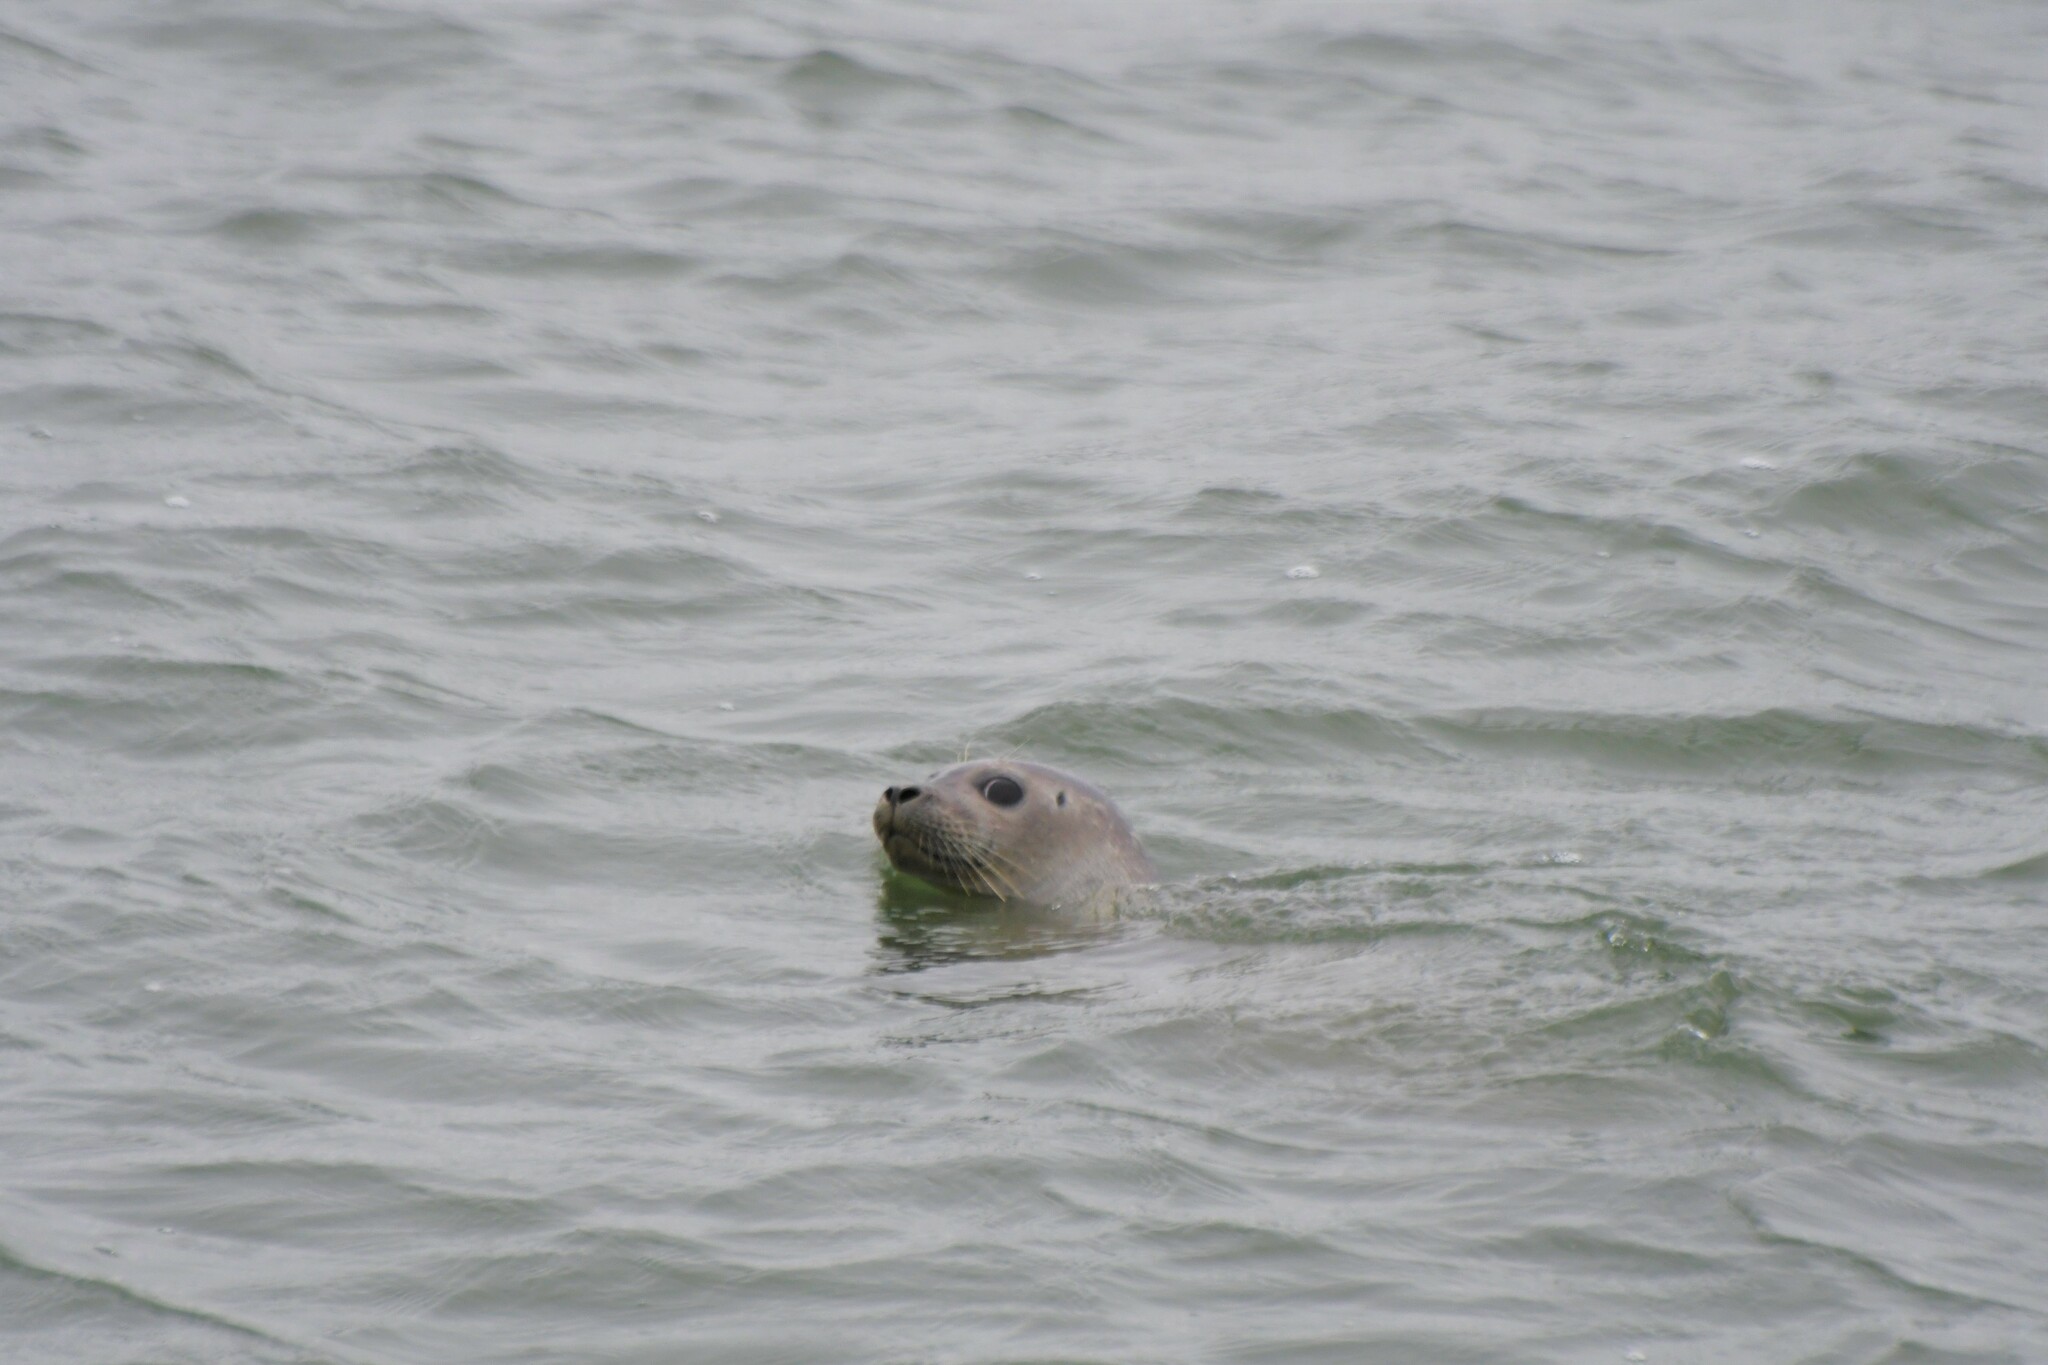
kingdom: Animalia
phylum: Chordata
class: Mammalia
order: Carnivora
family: Phocidae
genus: Phoca
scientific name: Phoca vitulina
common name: Harbor seal
